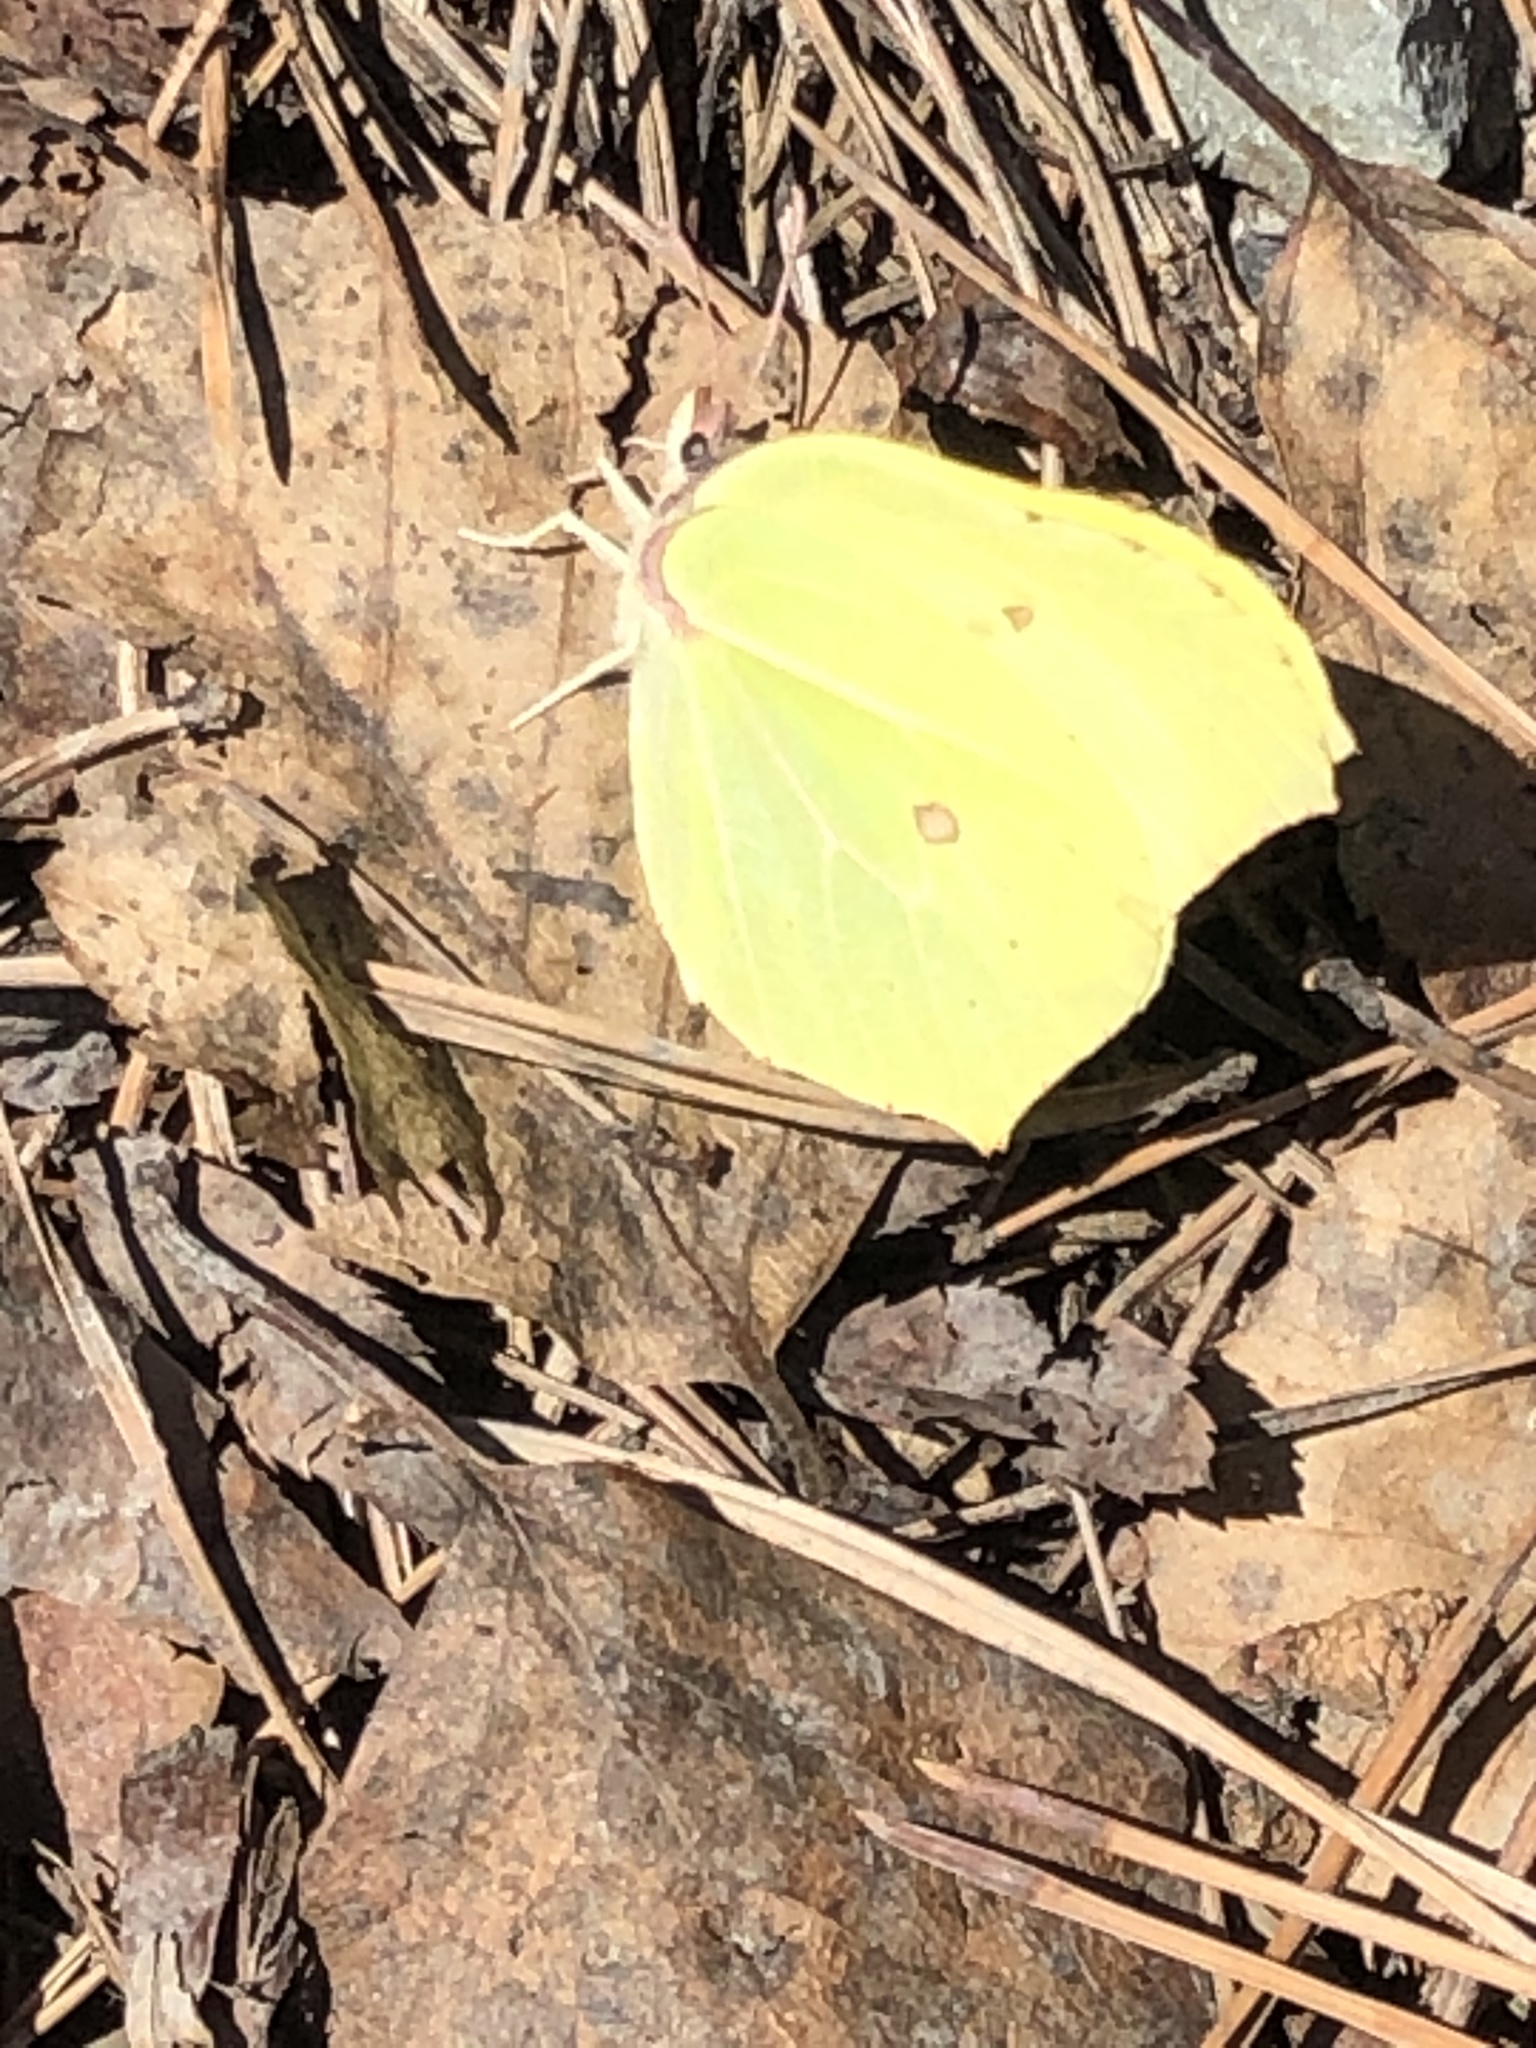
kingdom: Animalia
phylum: Arthropoda
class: Insecta
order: Lepidoptera
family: Pieridae
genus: Gonepteryx
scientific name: Gonepteryx rhamni
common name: Brimstone
